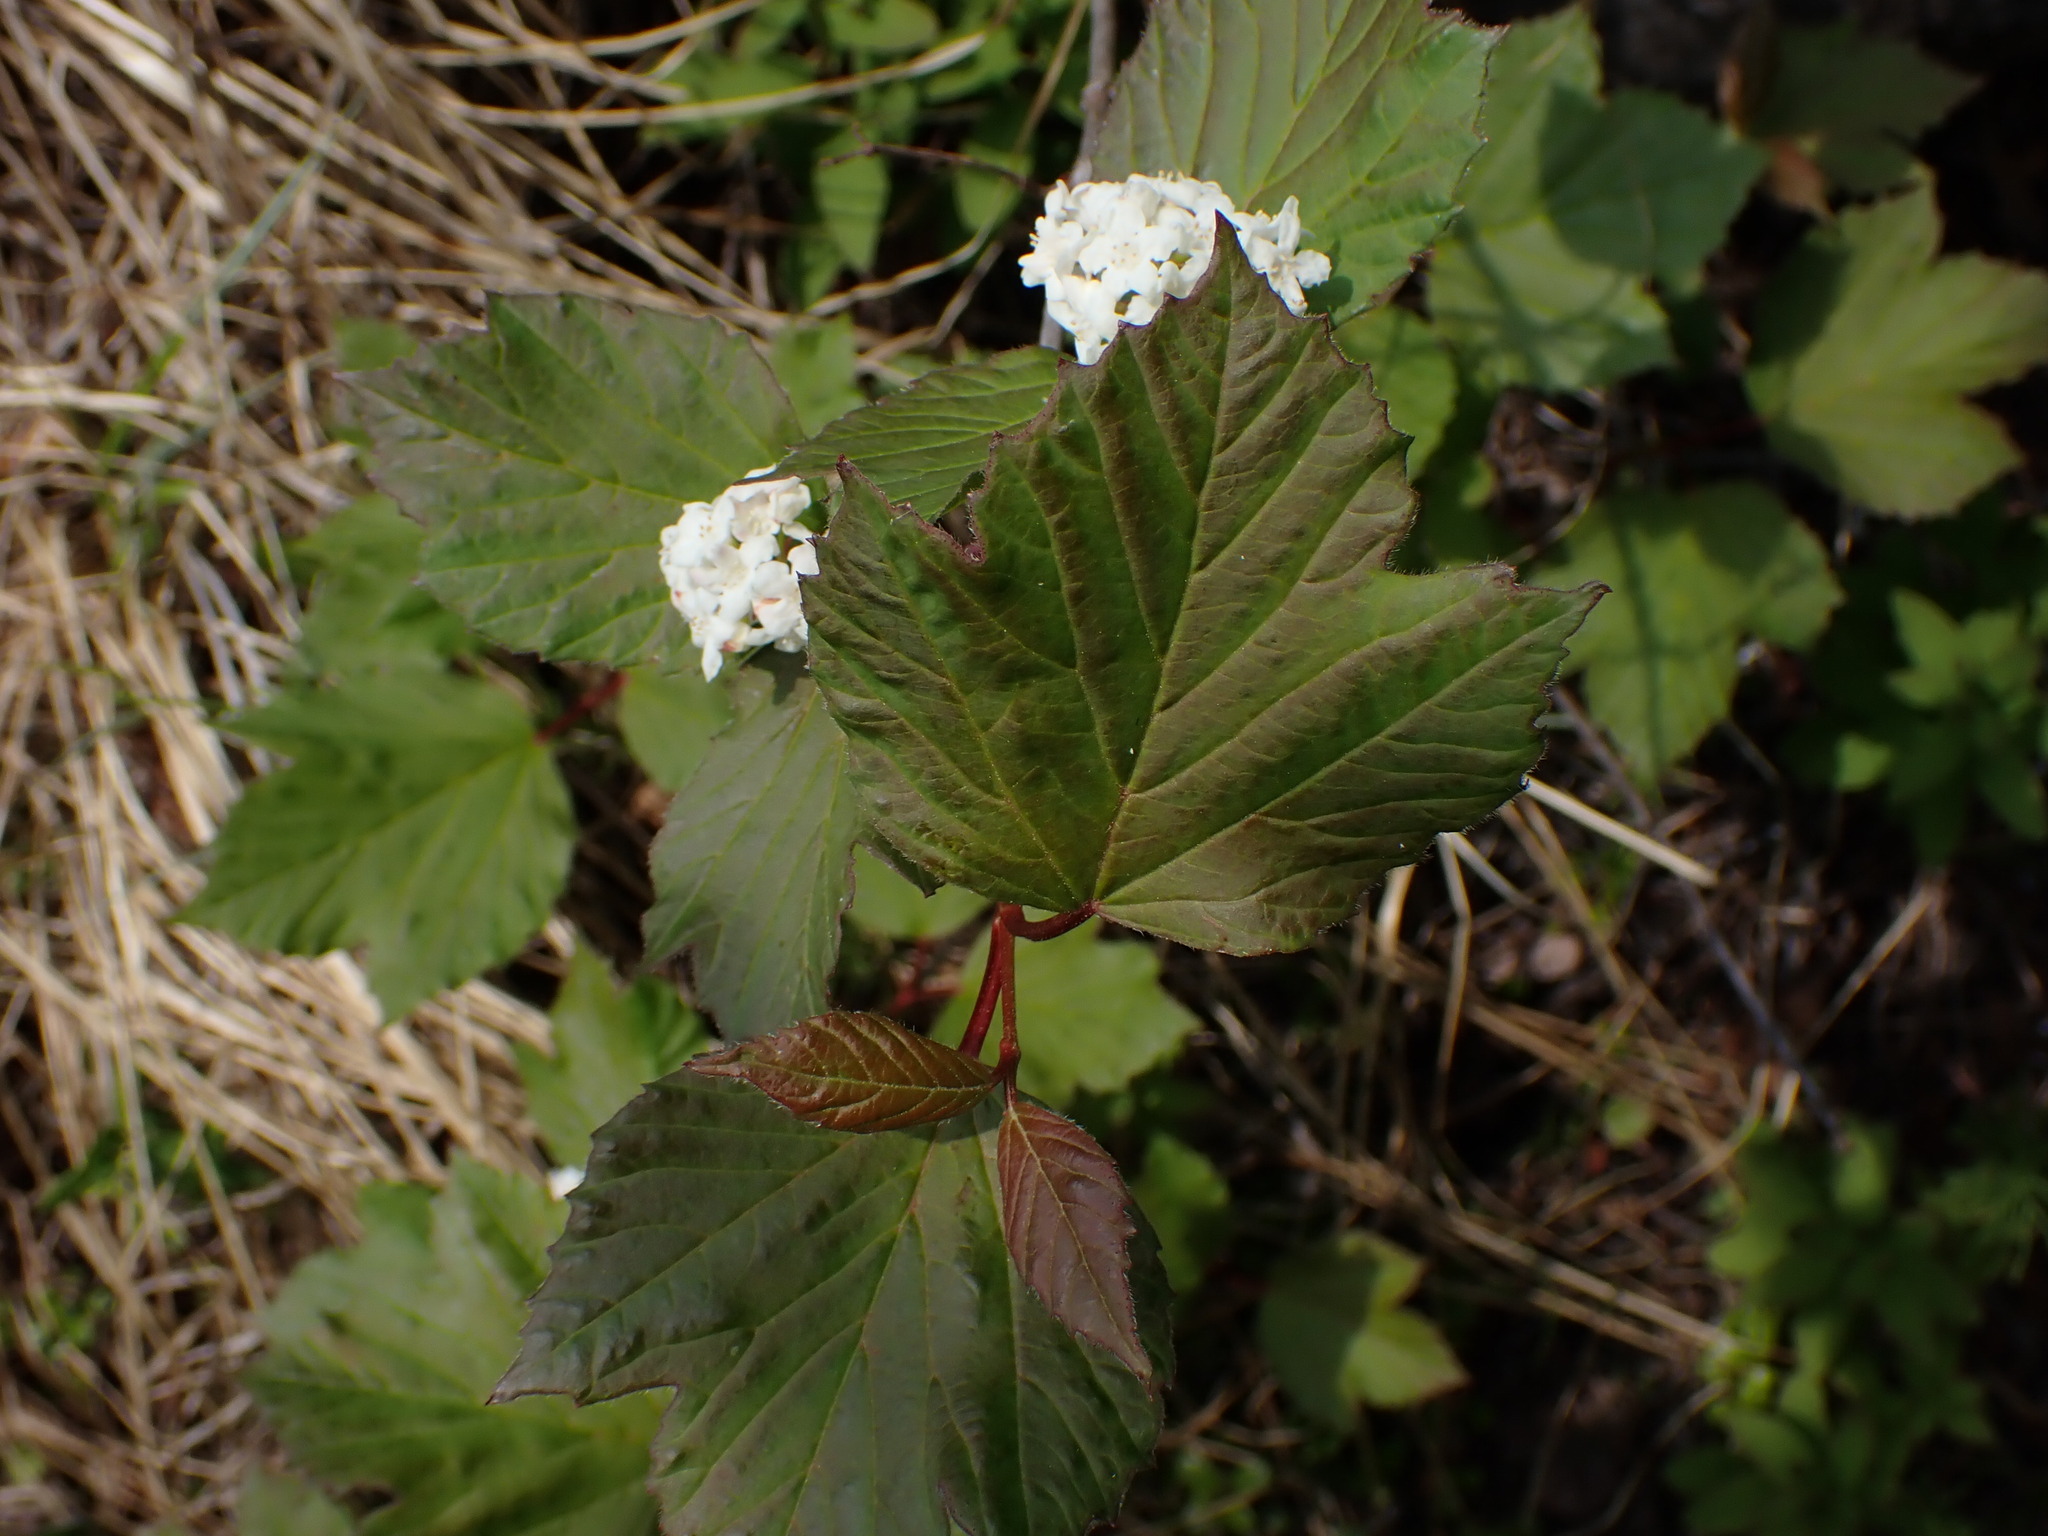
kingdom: Plantae
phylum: Tracheophyta
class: Magnoliopsida
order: Dipsacales
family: Viburnaceae
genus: Viburnum
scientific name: Viburnum edule
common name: Mooseberry
